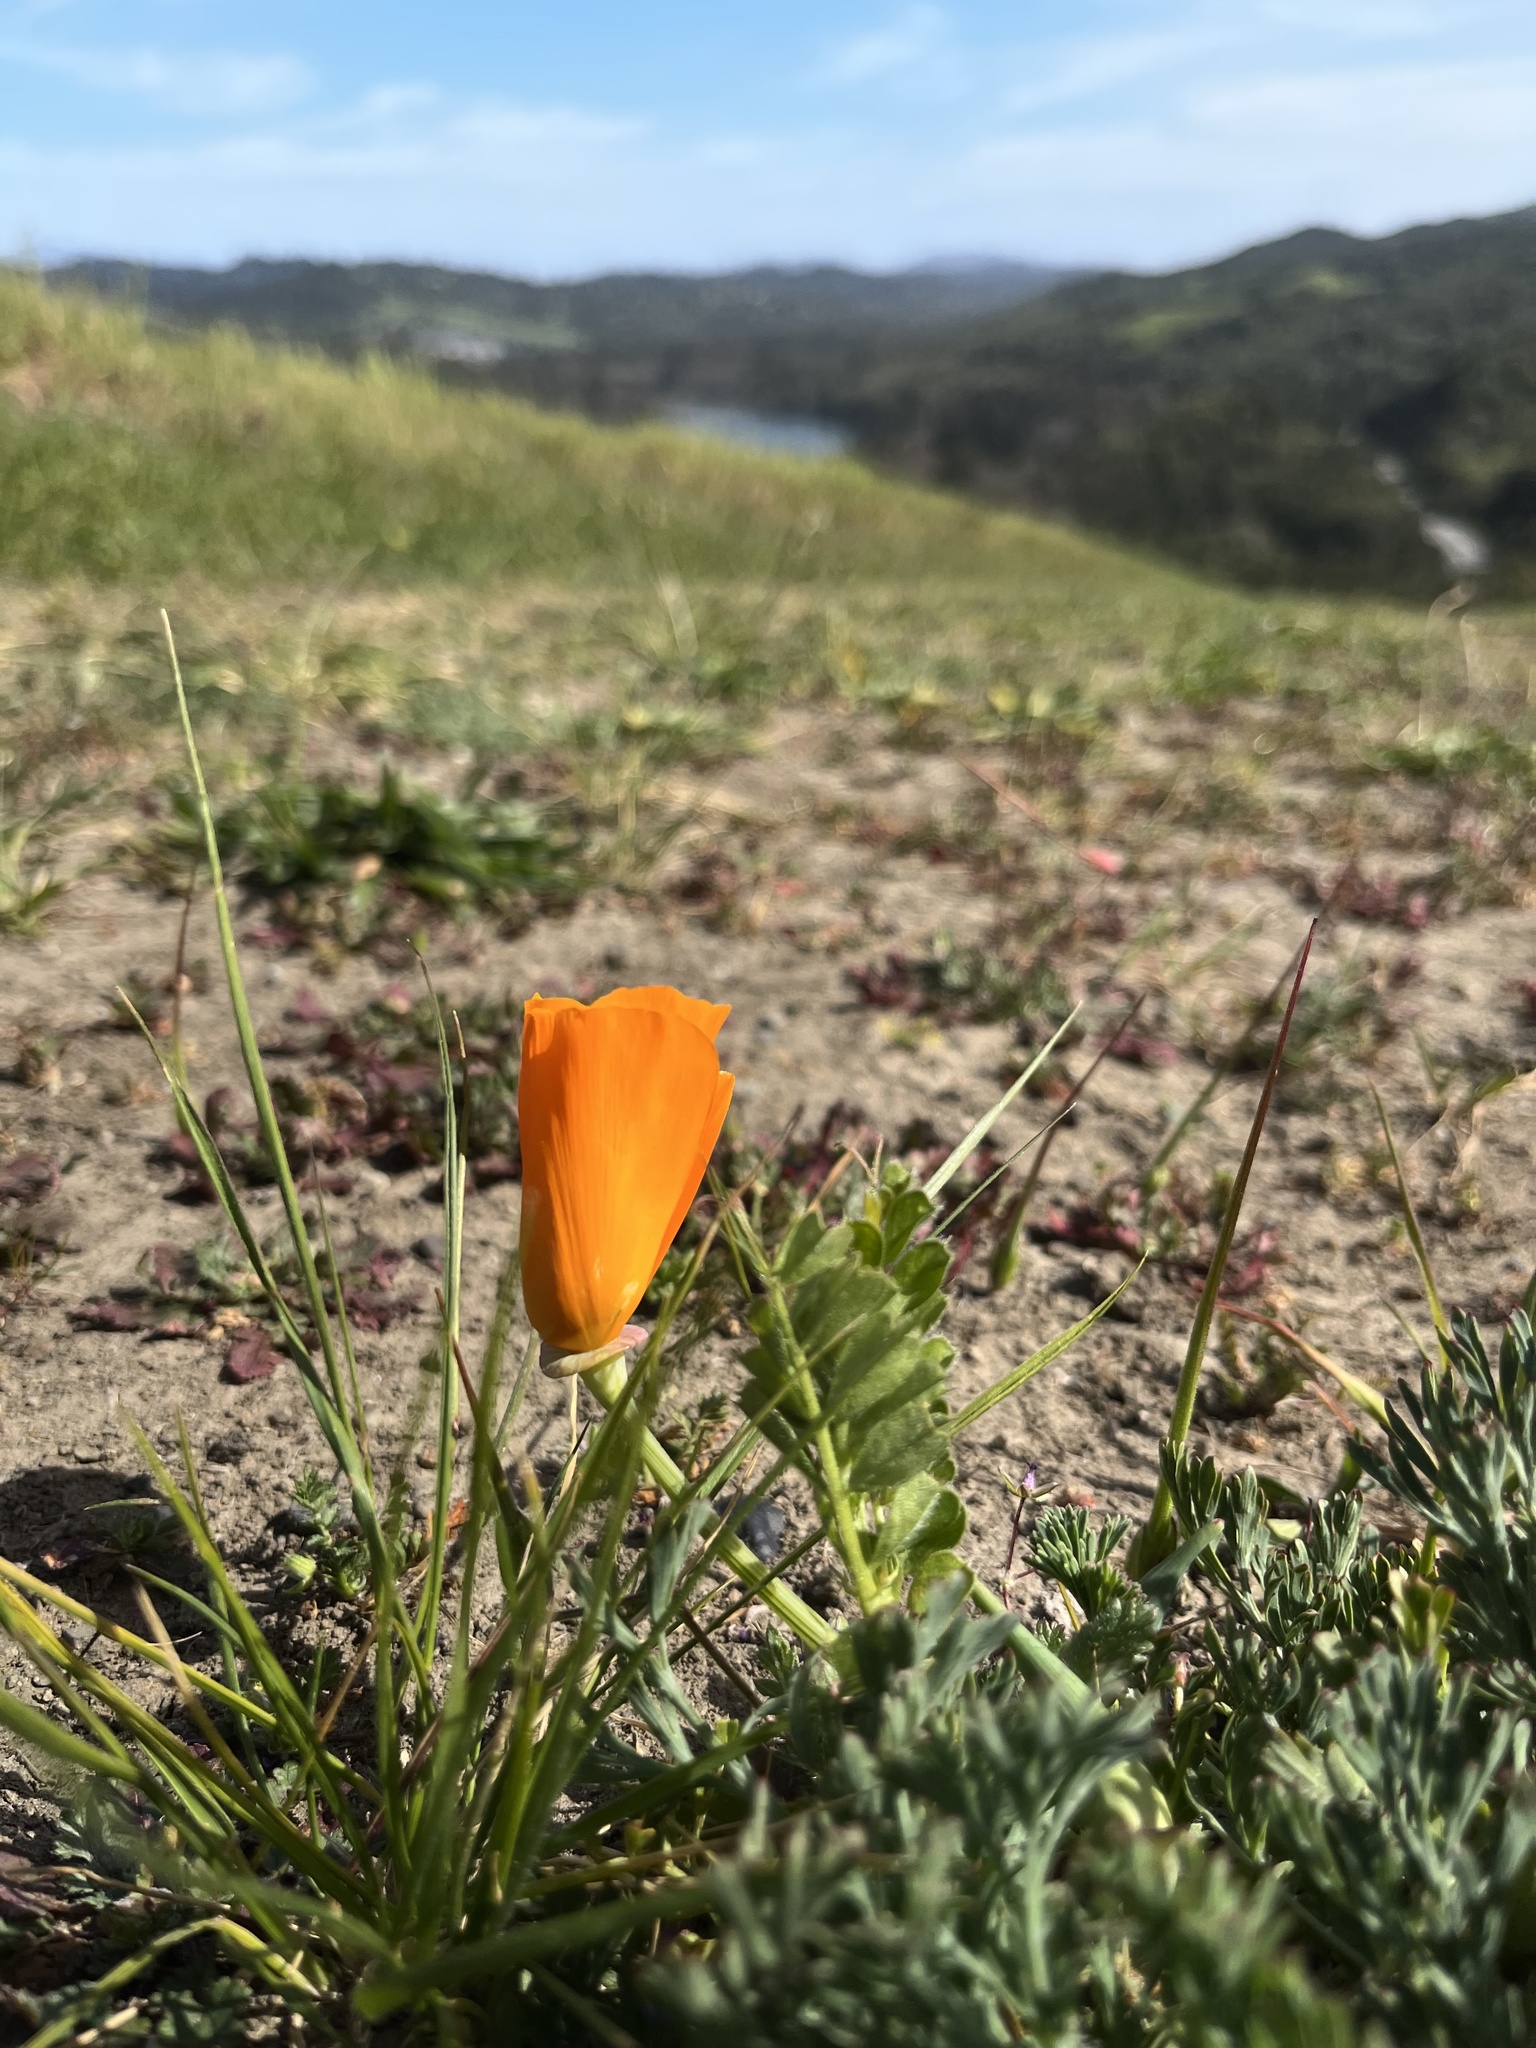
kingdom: Plantae
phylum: Tracheophyta
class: Magnoliopsida
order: Ranunculales
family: Papaveraceae
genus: Eschscholzia
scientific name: Eschscholzia californica
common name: California poppy
